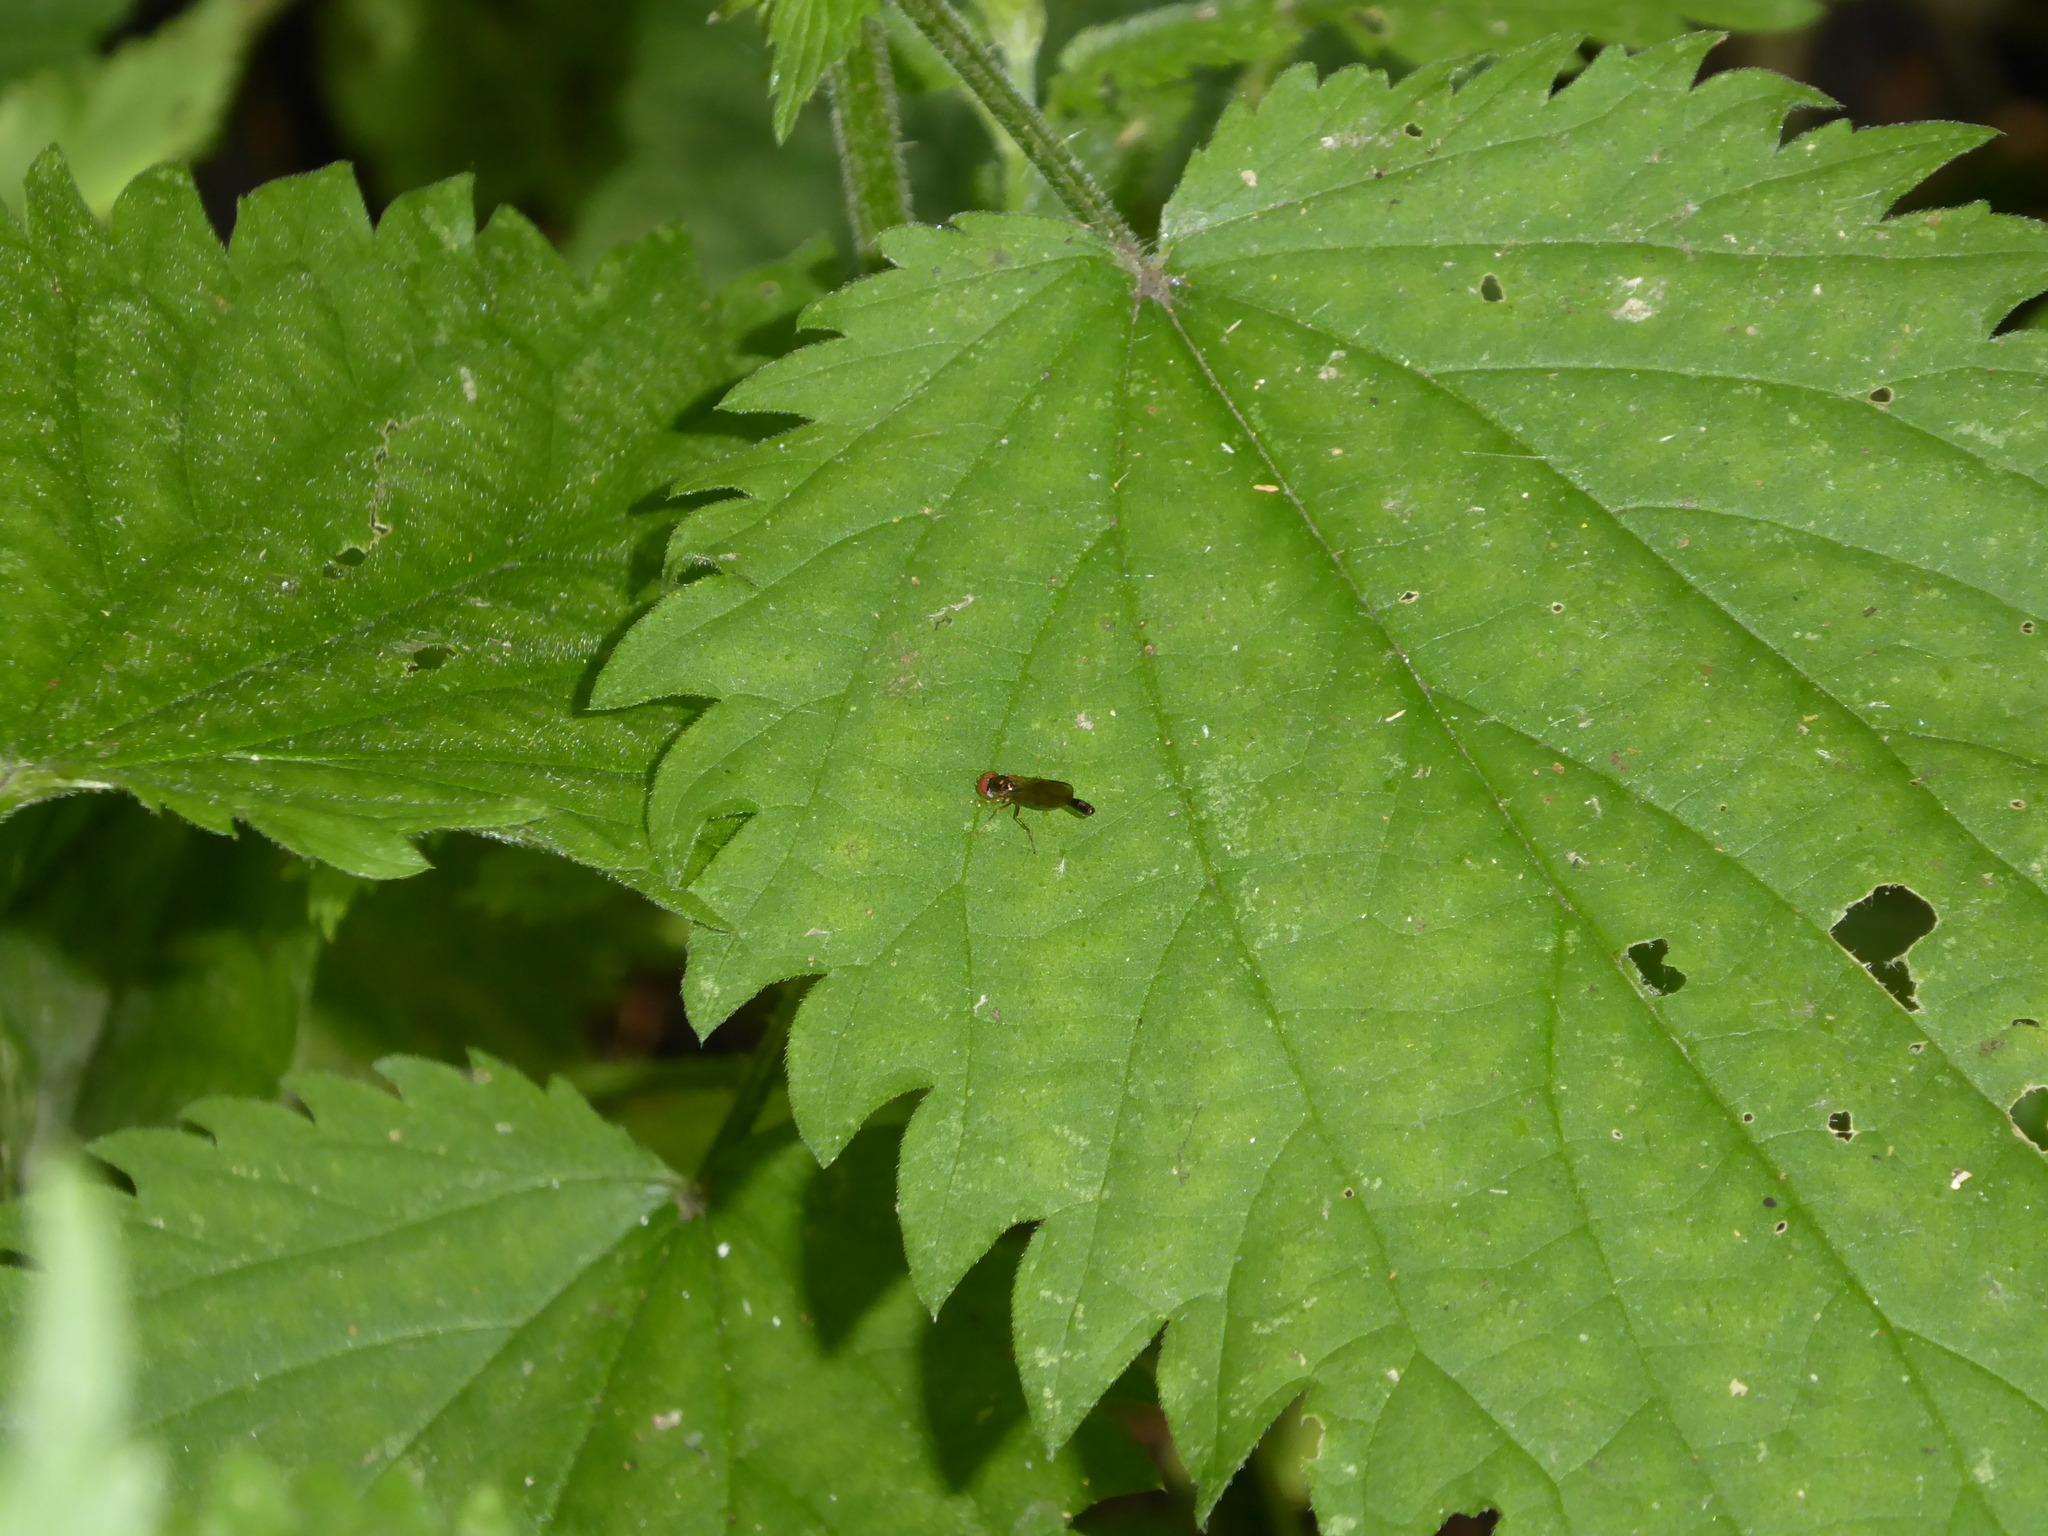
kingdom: Animalia
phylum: Arthropoda
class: Insecta
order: Diptera
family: Syrphidae
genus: Baccha
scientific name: Baccha elongata
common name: Common dainty
